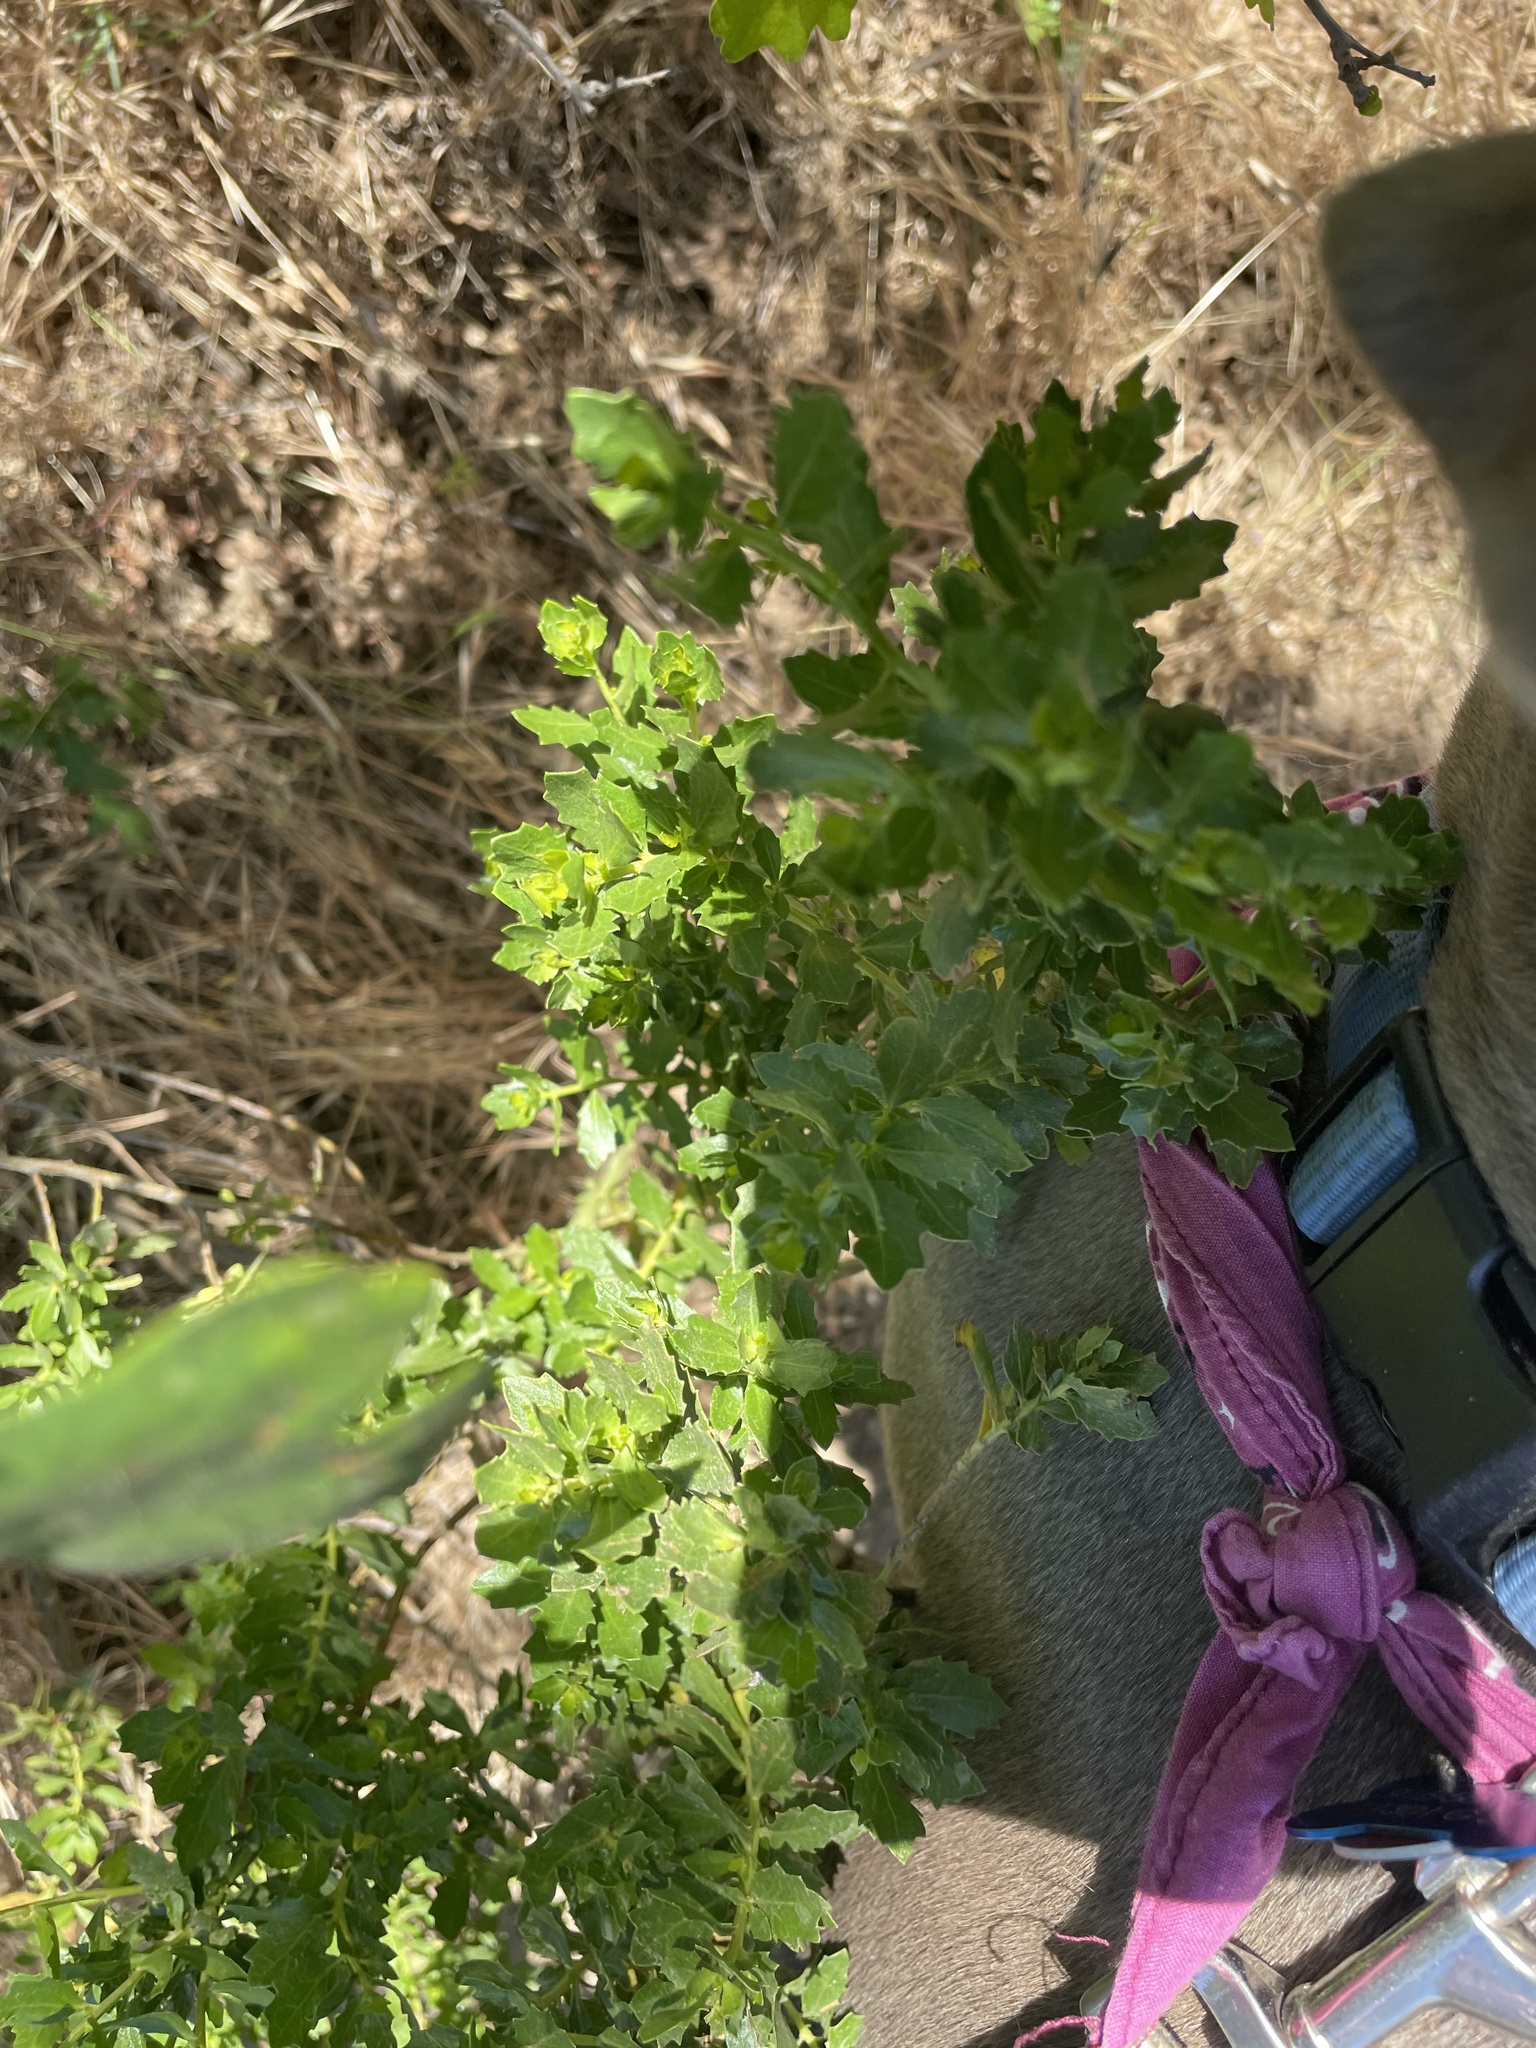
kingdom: Plantae
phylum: Tracheophyta
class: Magnoliopsida
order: Asterales
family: Asteraceae
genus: Baccharis
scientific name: Baccharis pilularis
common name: Coyotebrush
